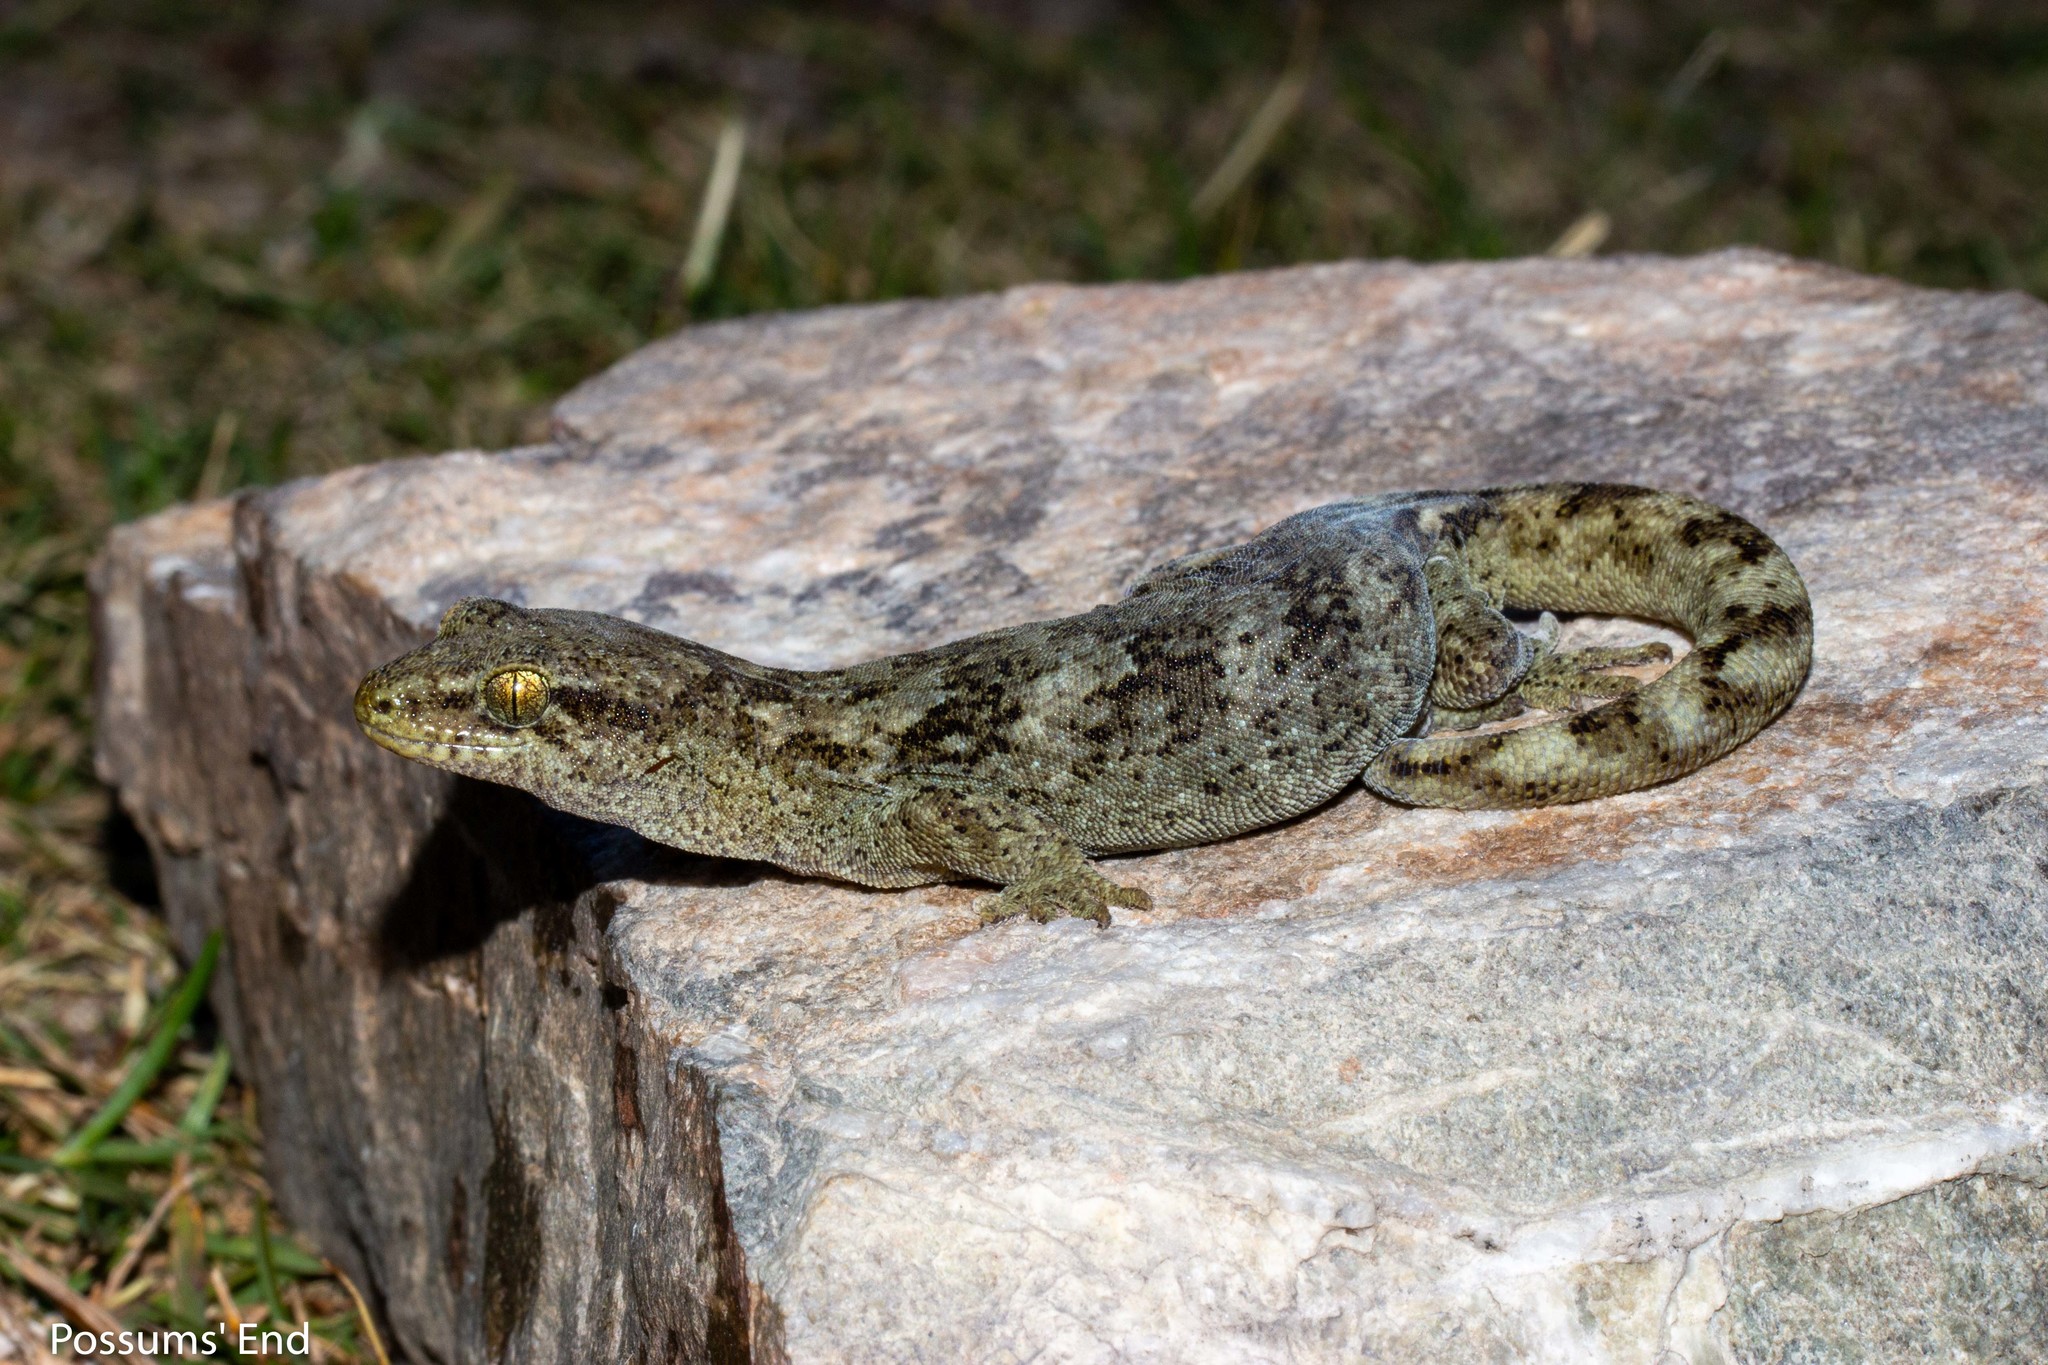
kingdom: Animalia
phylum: Chordata
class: Squamata
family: Diplodactylidae
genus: Woodworthia
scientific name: Woodworthia
